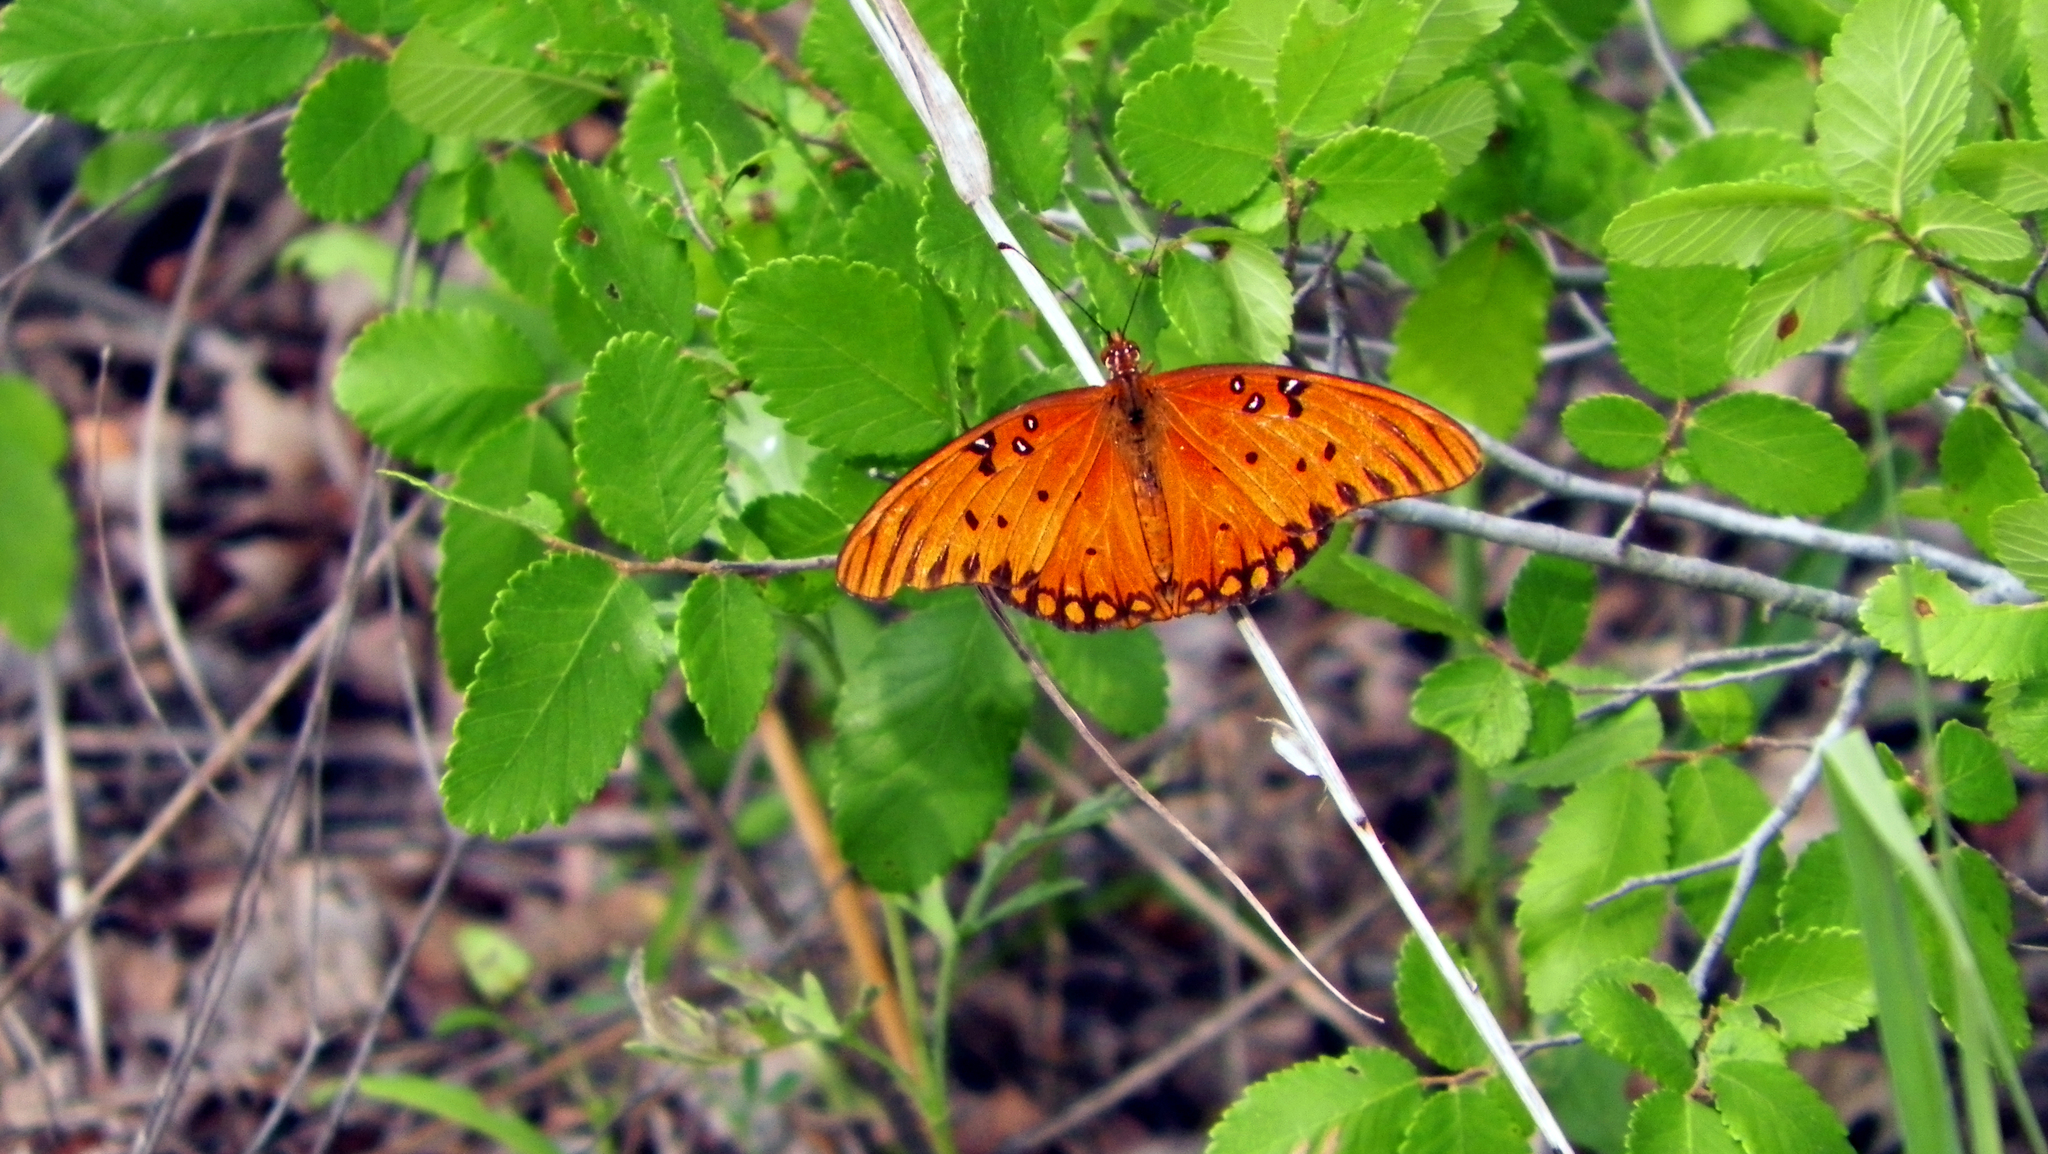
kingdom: Animalia
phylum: Arthropoda
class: Insecta
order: Lepidoptera
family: Nymphalidae
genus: Dione
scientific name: Dione vanillae
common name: Gulf fritillary
